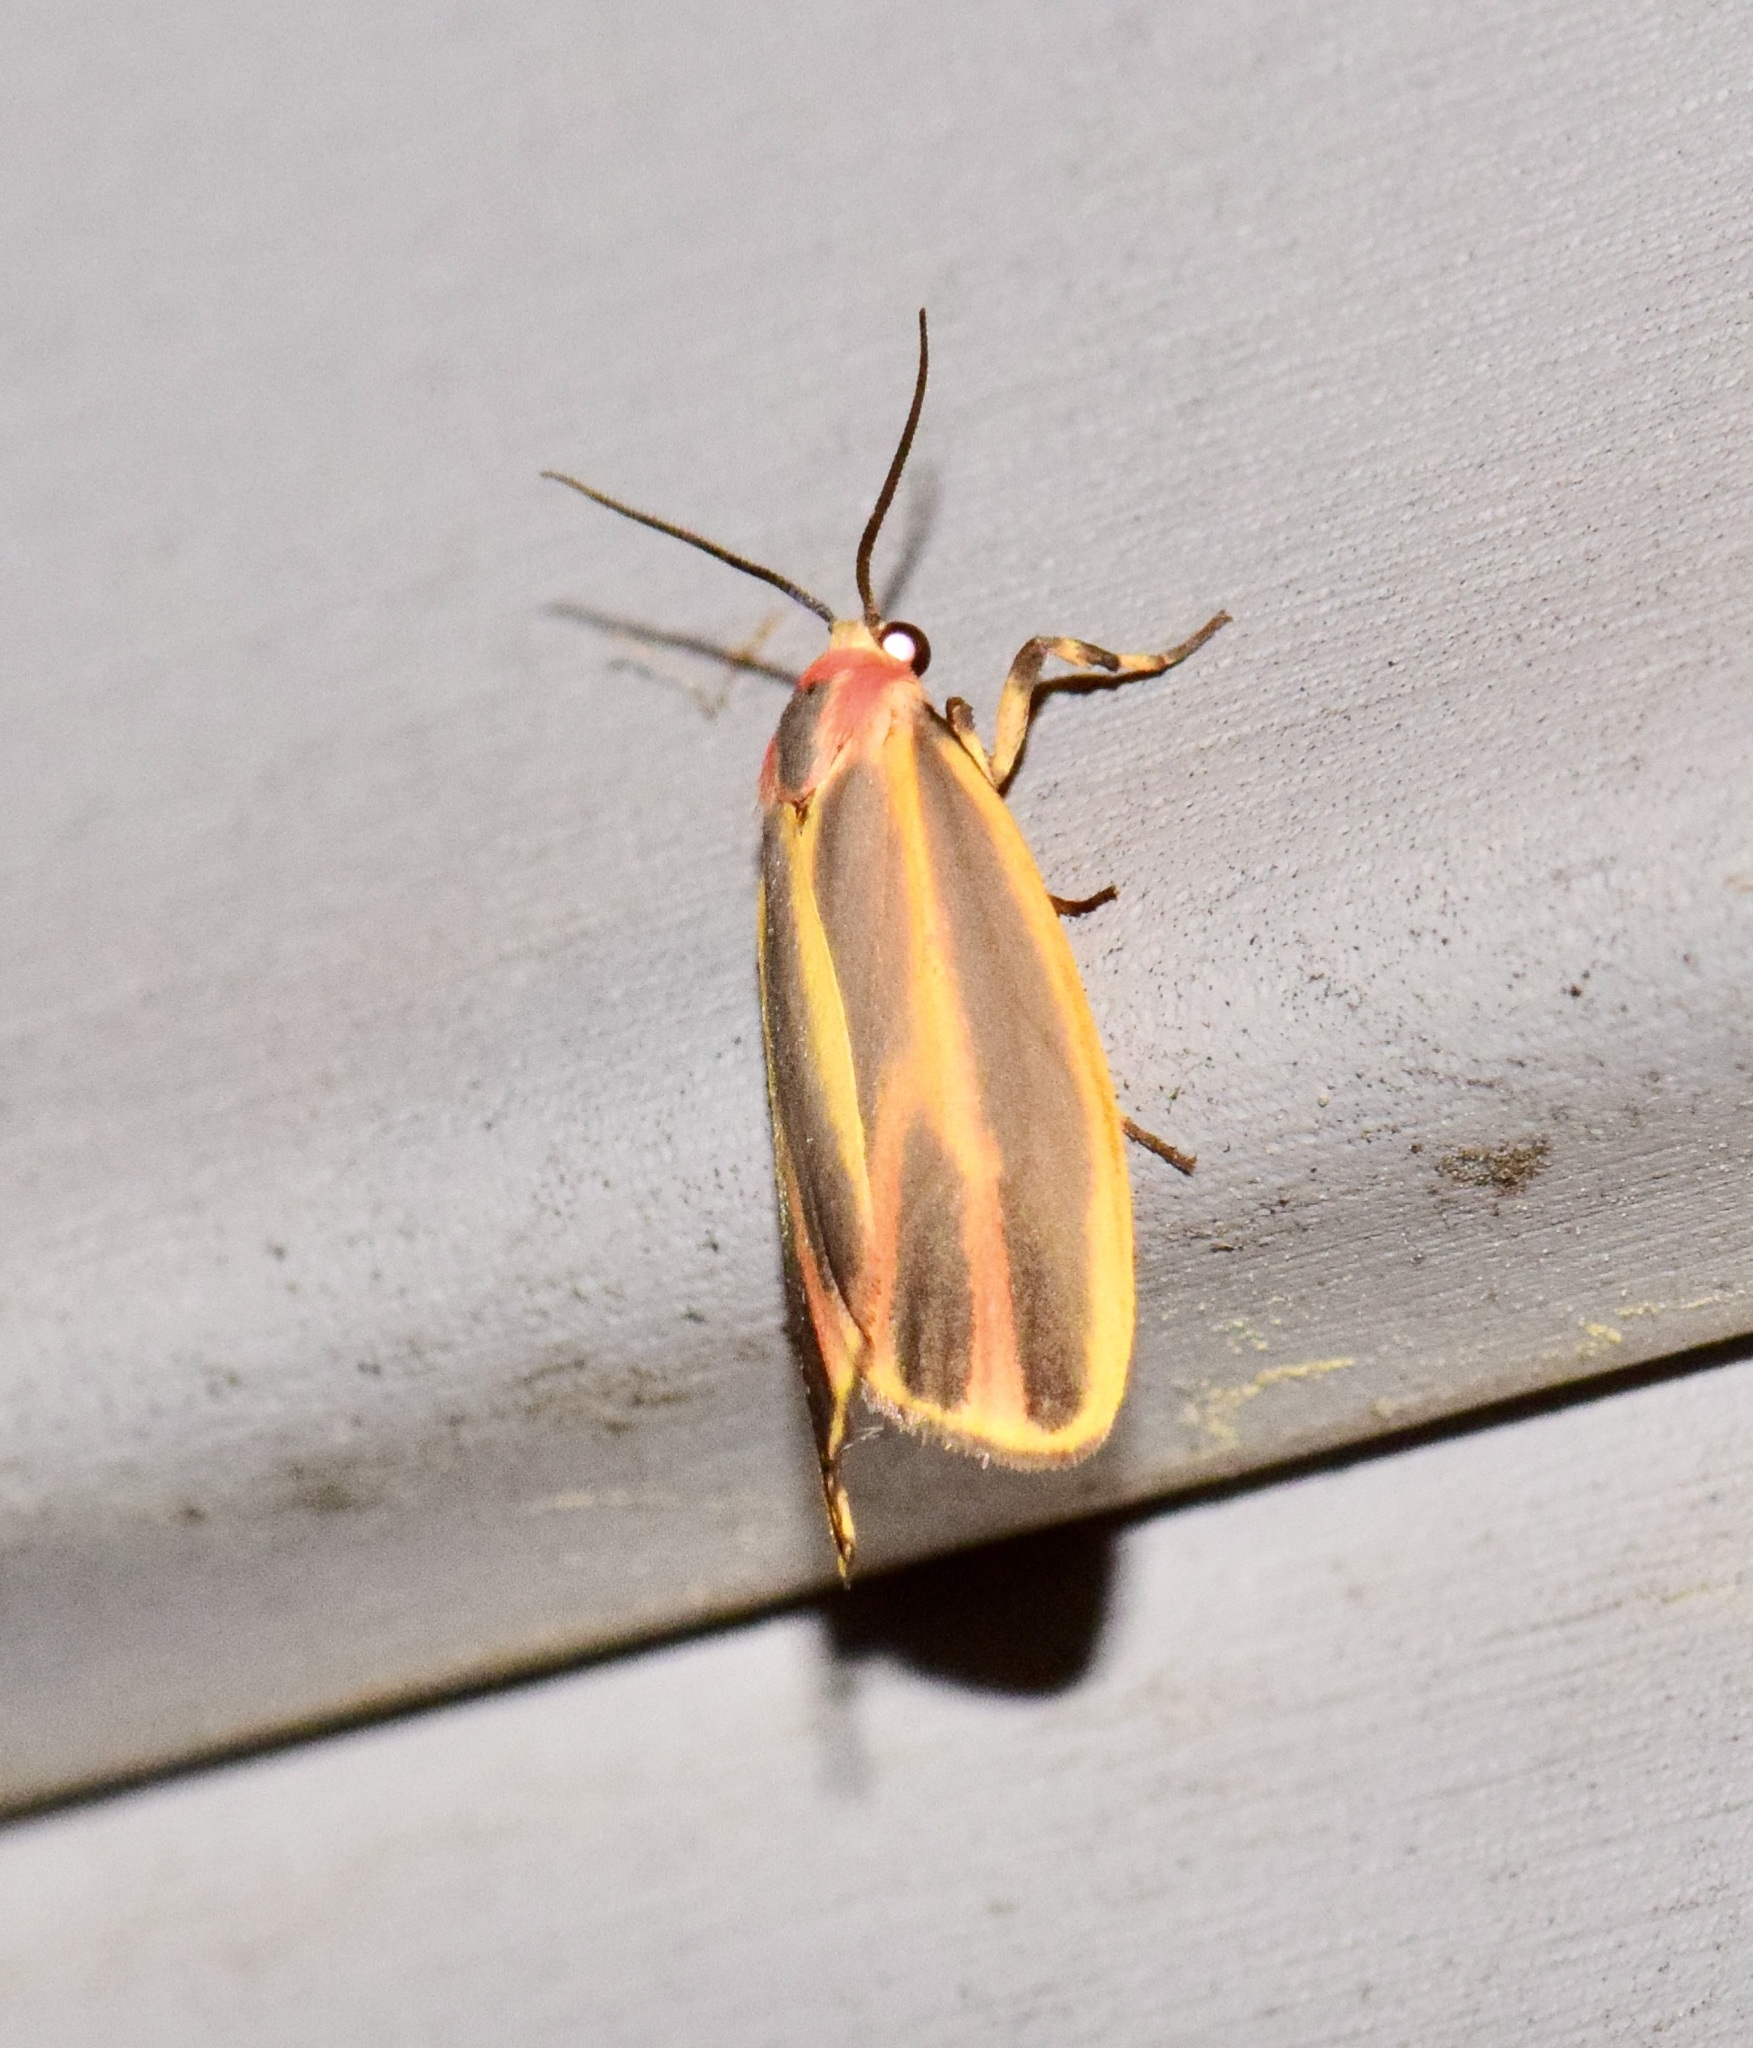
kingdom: Animalia
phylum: Arthropoda
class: Insecta
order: Lepidoptera
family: Erebidae
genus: Hypoprepia
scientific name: Hypoprepia fucosa
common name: Painted lichen moth
